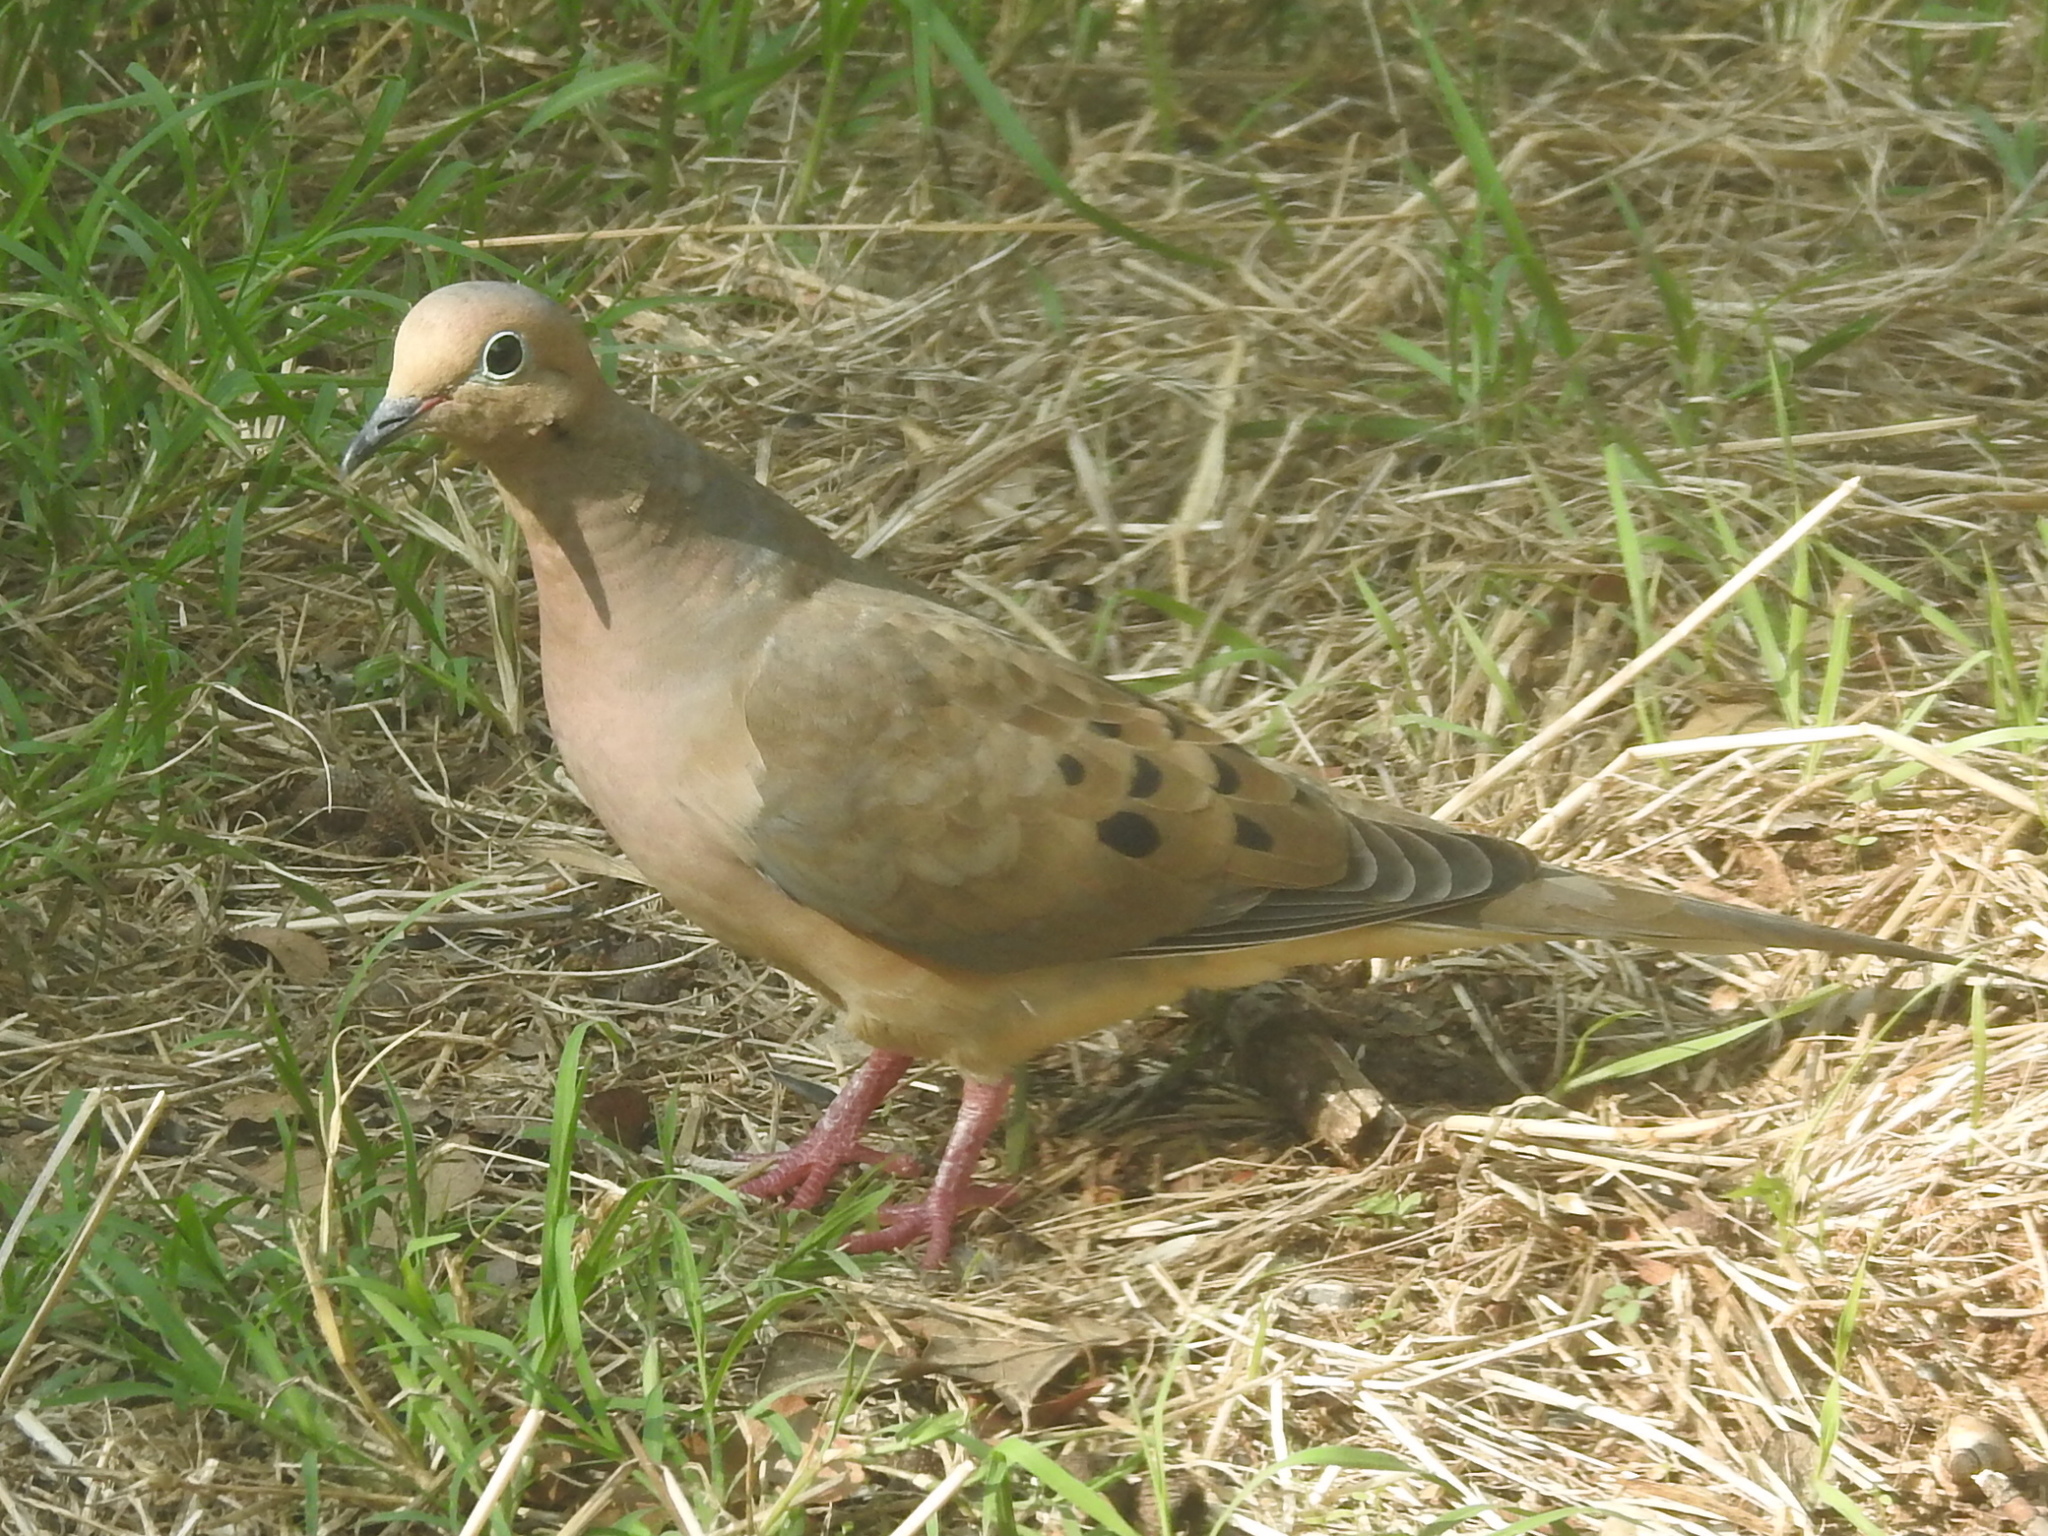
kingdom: Animalia
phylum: Chordata
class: Aves
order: Columbiformes
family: Columbidae
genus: Zenaida
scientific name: Zenaida macroura
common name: Mourning dove
